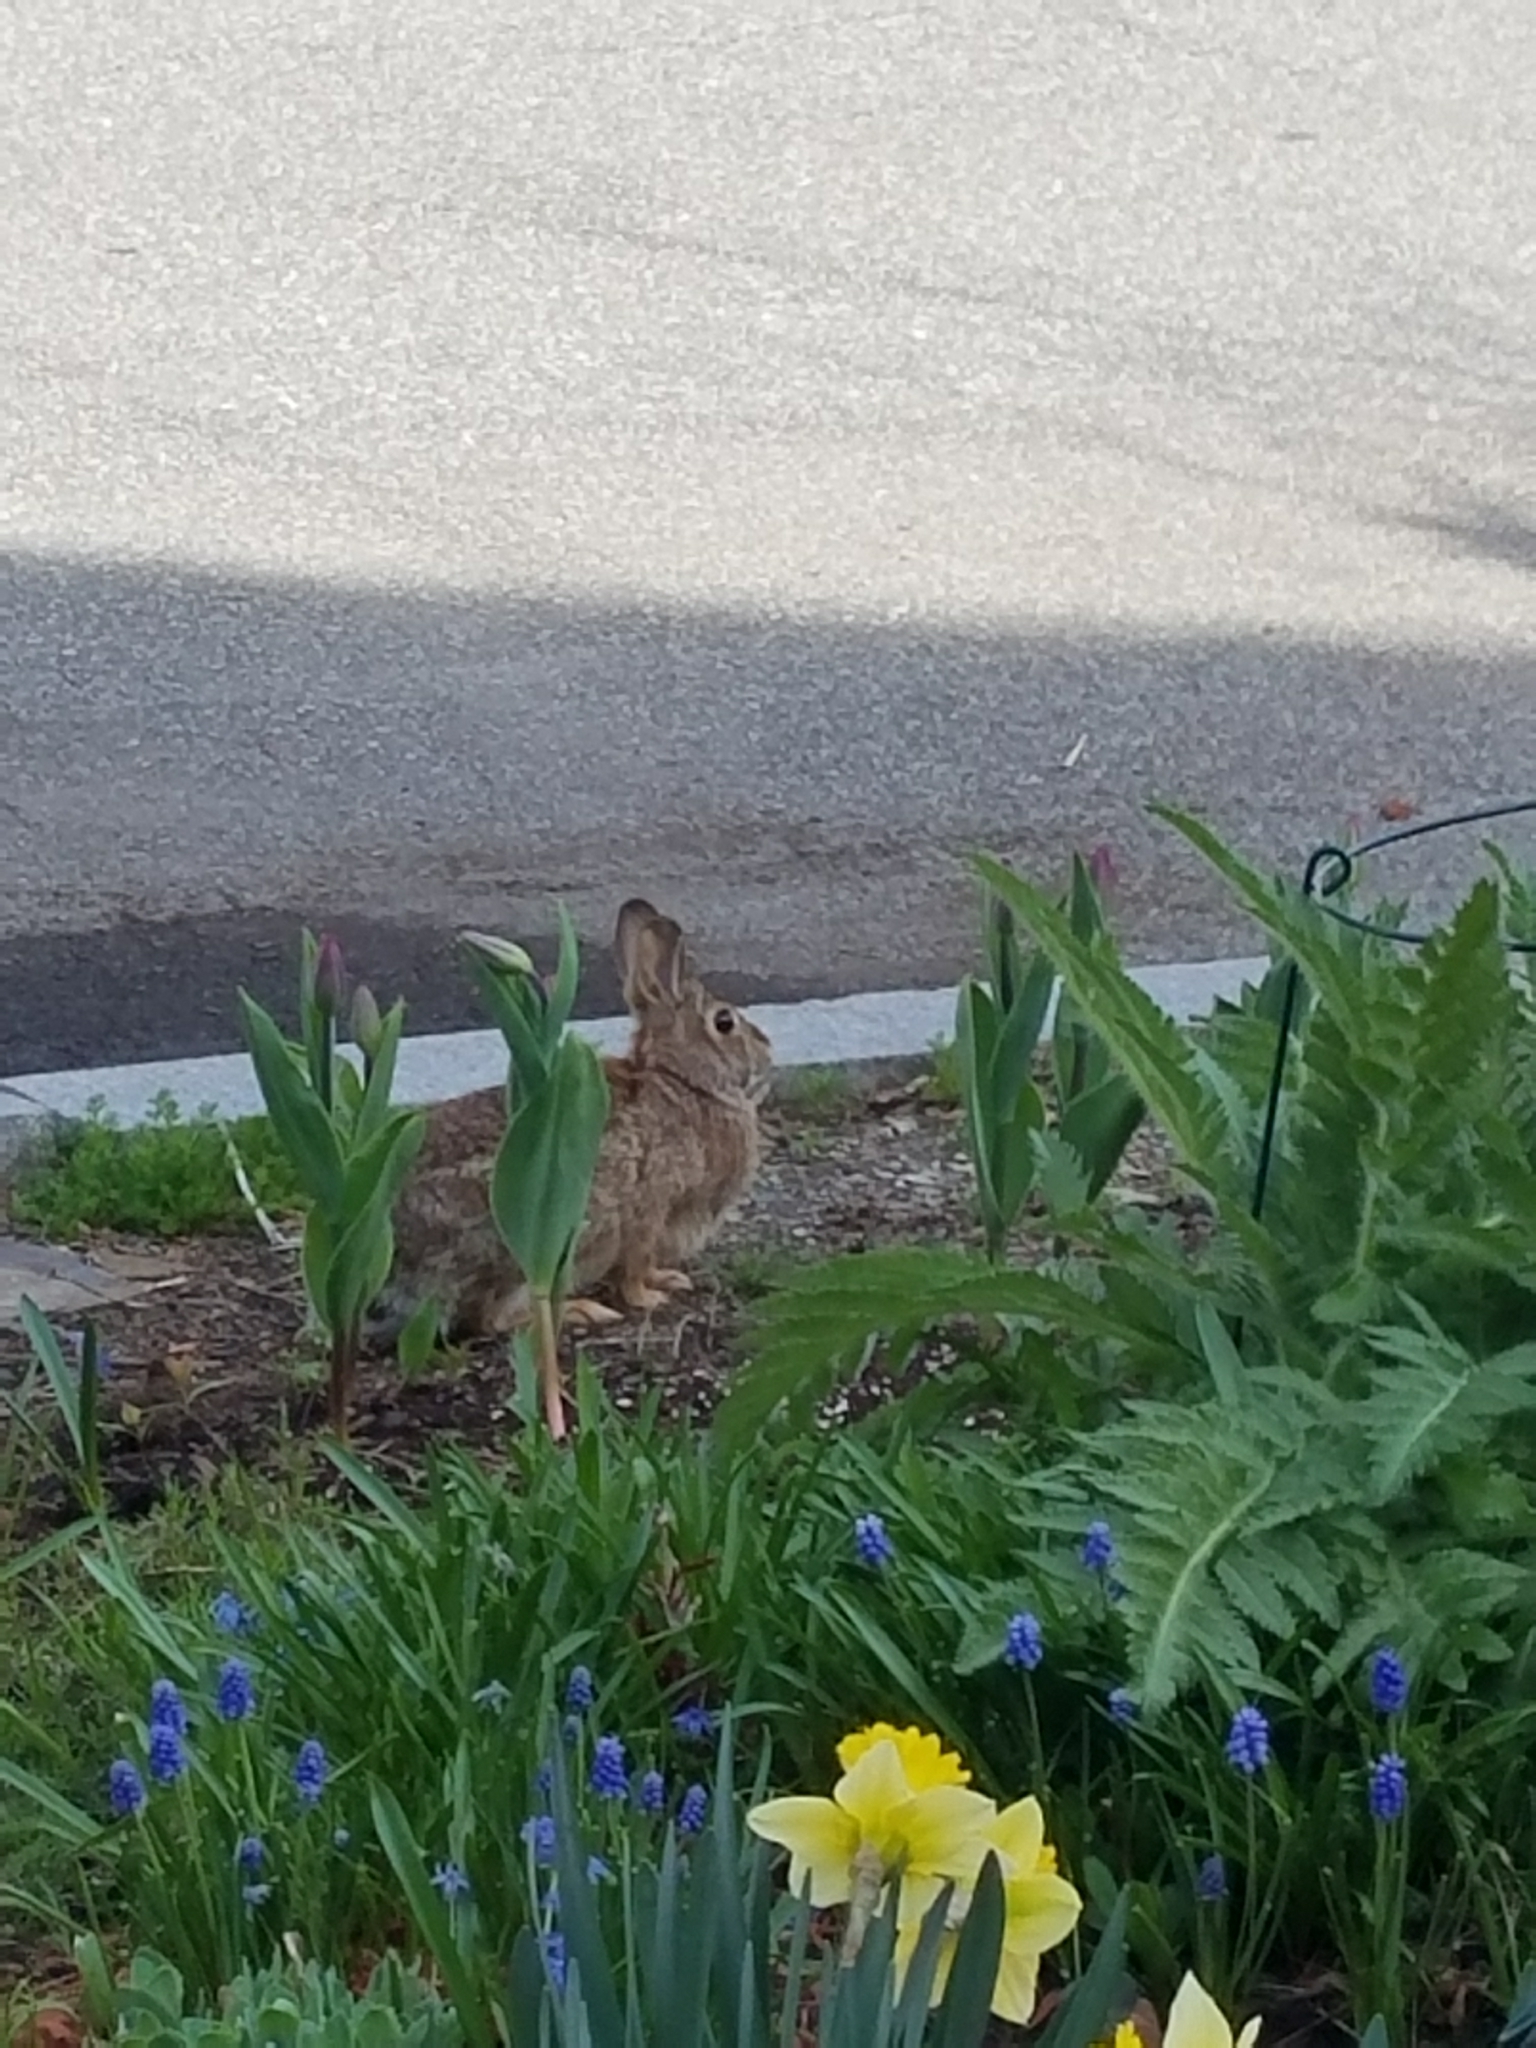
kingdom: Animalia
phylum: Chordata
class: Mammalia
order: Lagomorpha
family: Leporidae
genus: Sylvilagus
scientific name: Sylvilagus floridanus
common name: Eastern cottontail
